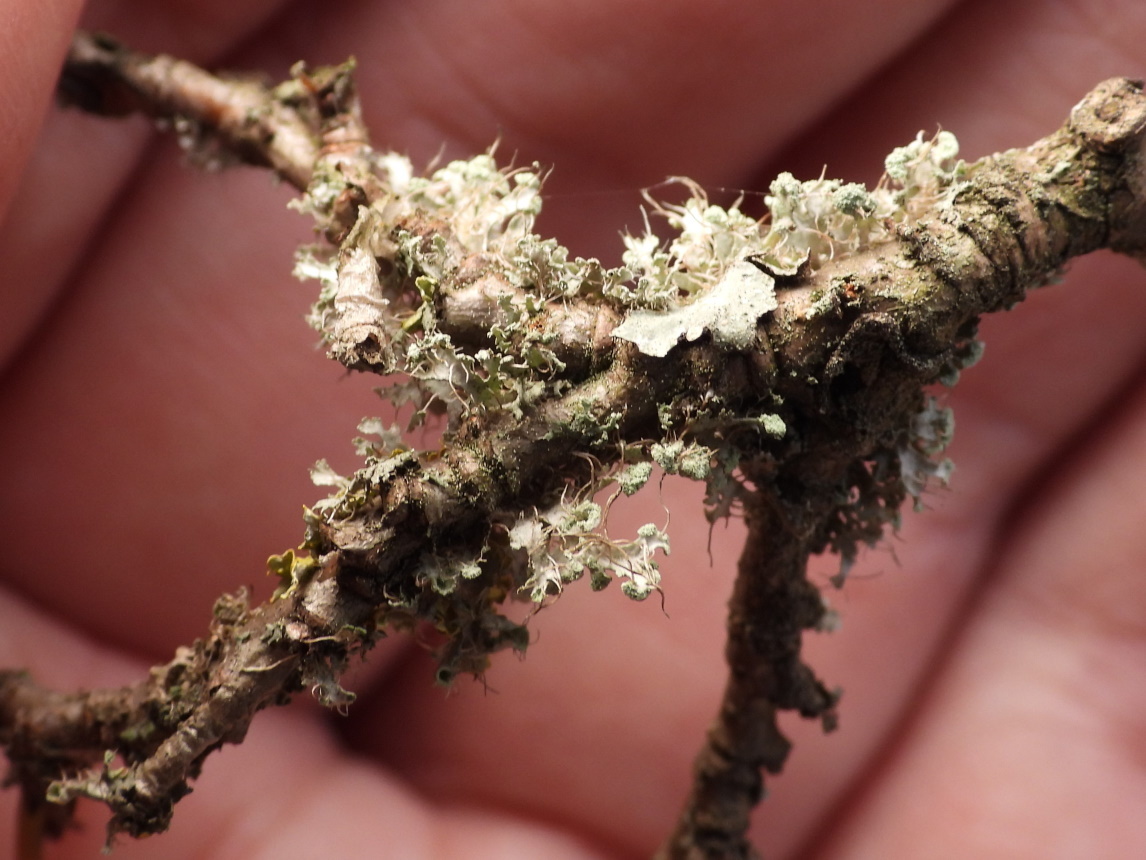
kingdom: Fungi
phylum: Ascomycota
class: Lecanoromycetes
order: Caliciales
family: Physciaceae
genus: Physcia
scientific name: Physcia tenella
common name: Fringed rosette lichen
